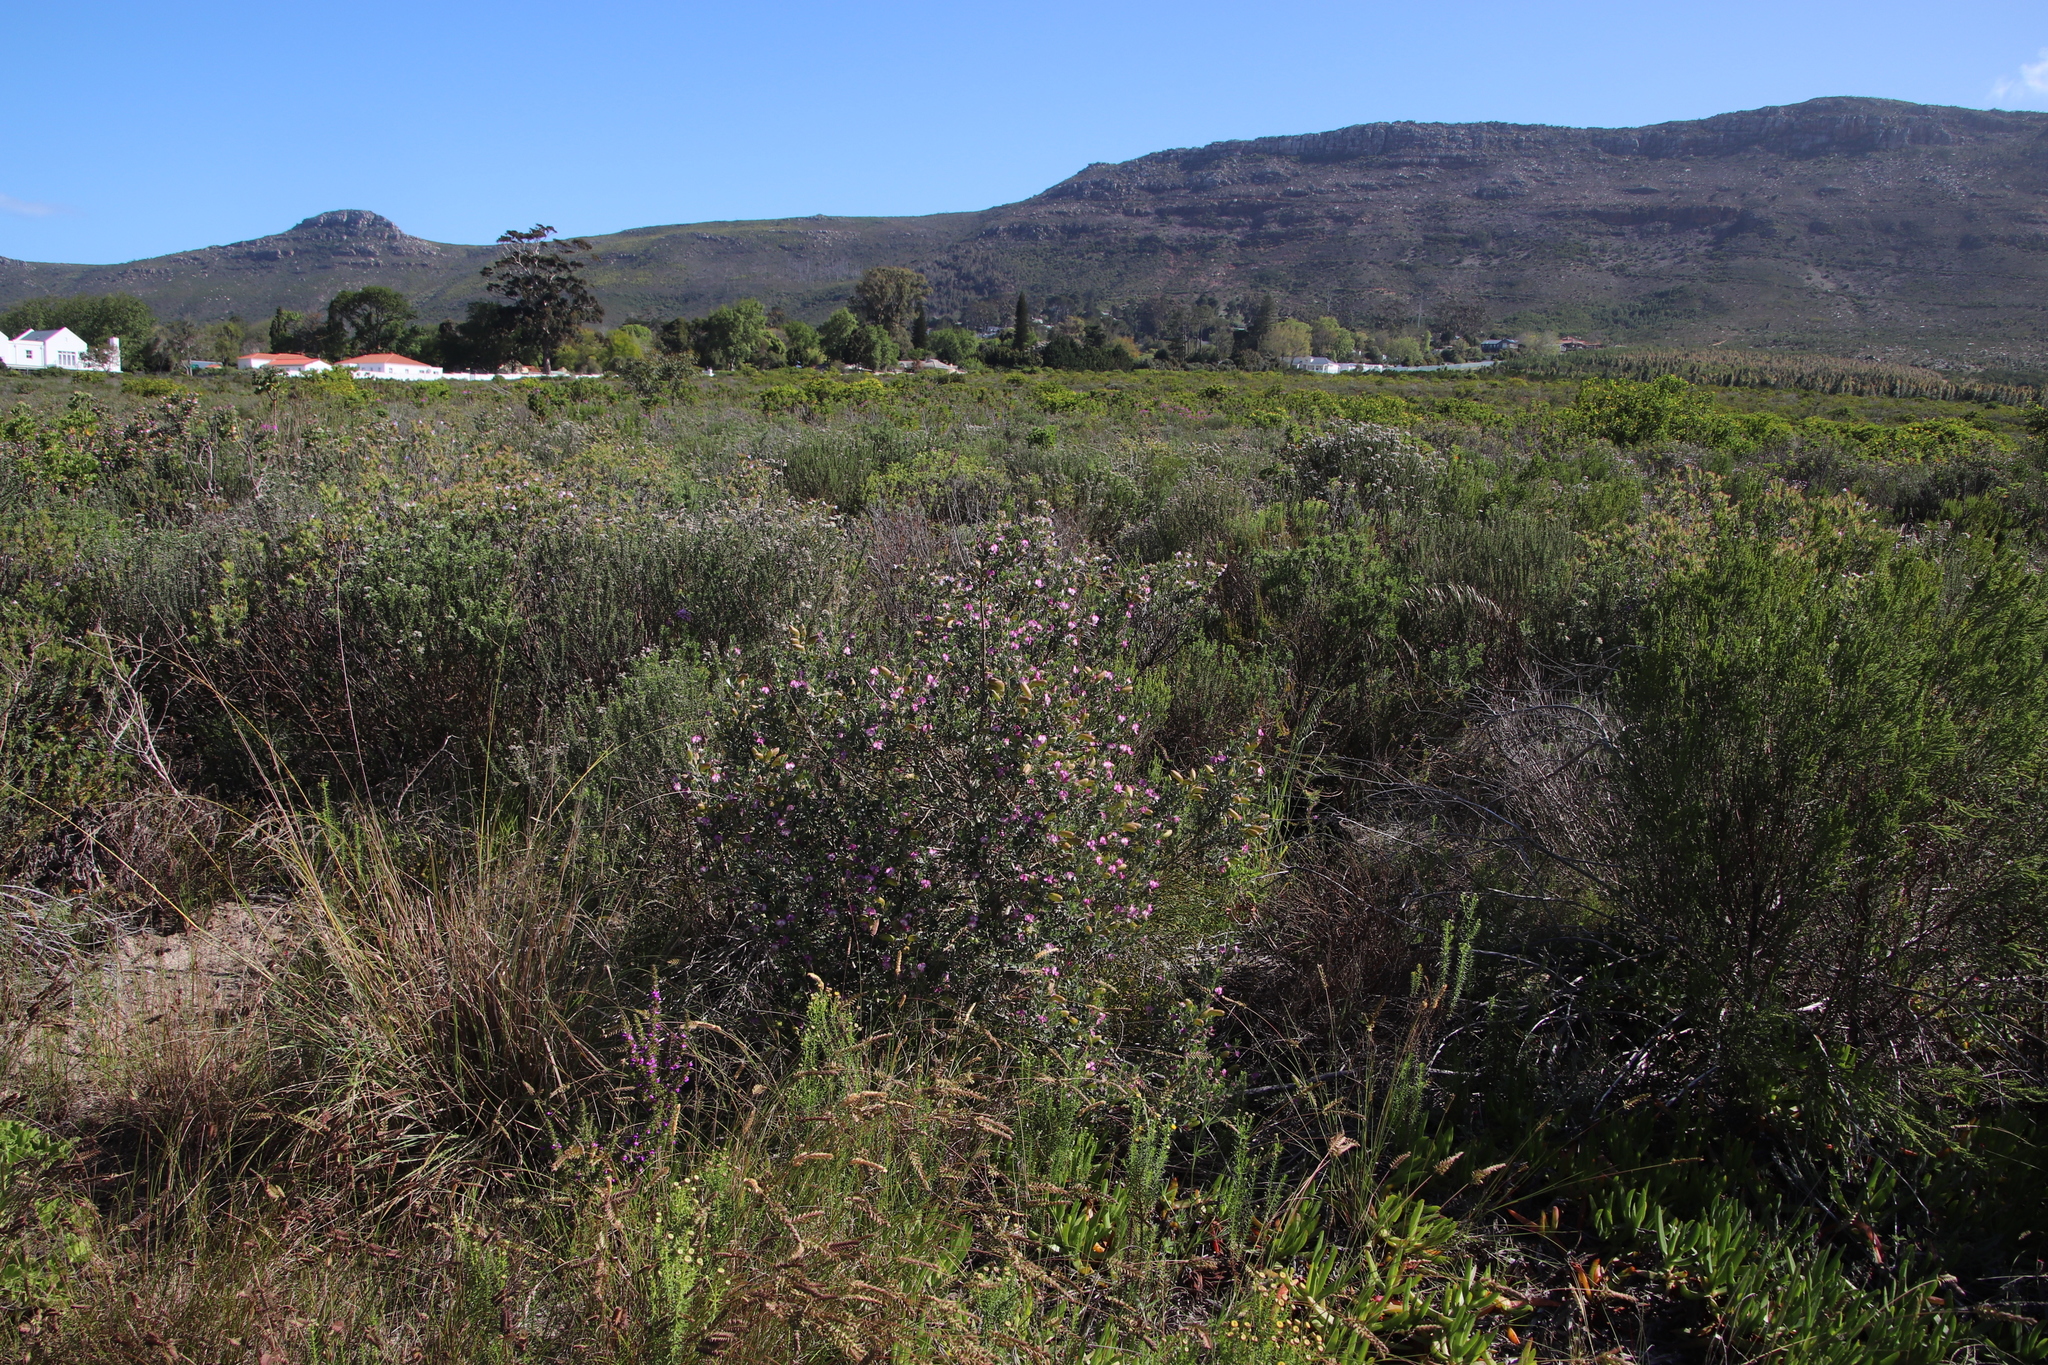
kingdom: Plantae
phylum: Tracheophyta
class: Magnoliopsida
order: Fabales
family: Fabaceae
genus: Podalyria
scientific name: Podalyria myrtillifolia
